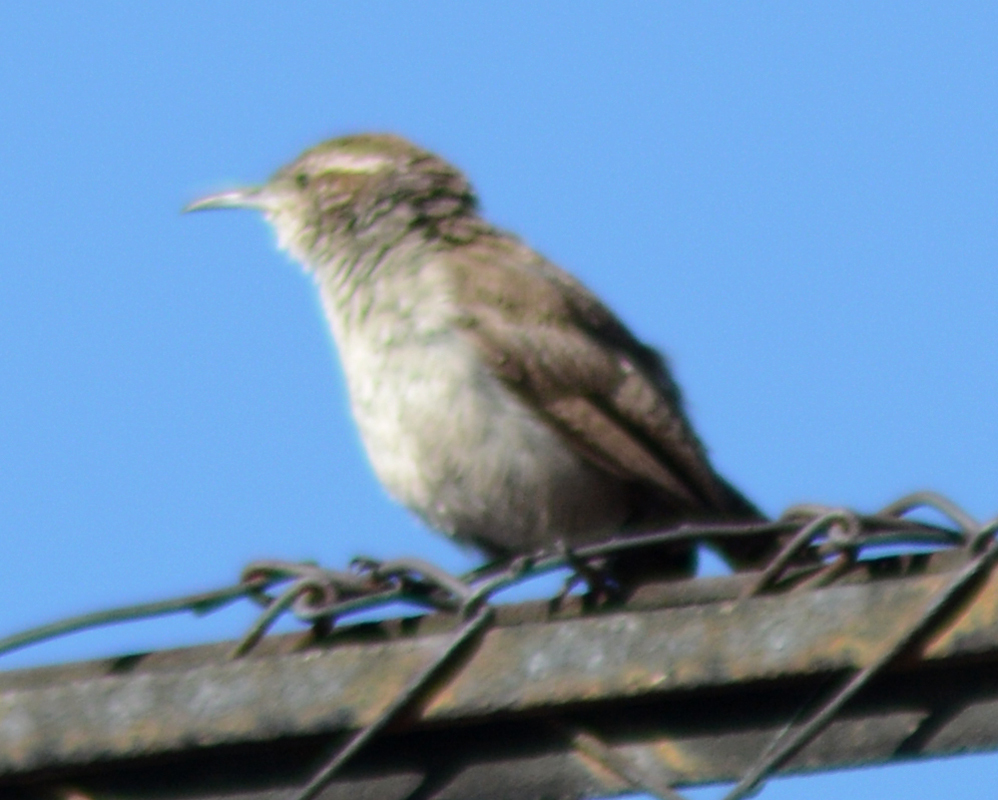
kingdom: Animalia
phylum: Chordata
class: Aves
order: Passeriformes
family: Troglodytidae
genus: Thryomanes
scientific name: Thryomanes bewickii
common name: Bewick's wren
